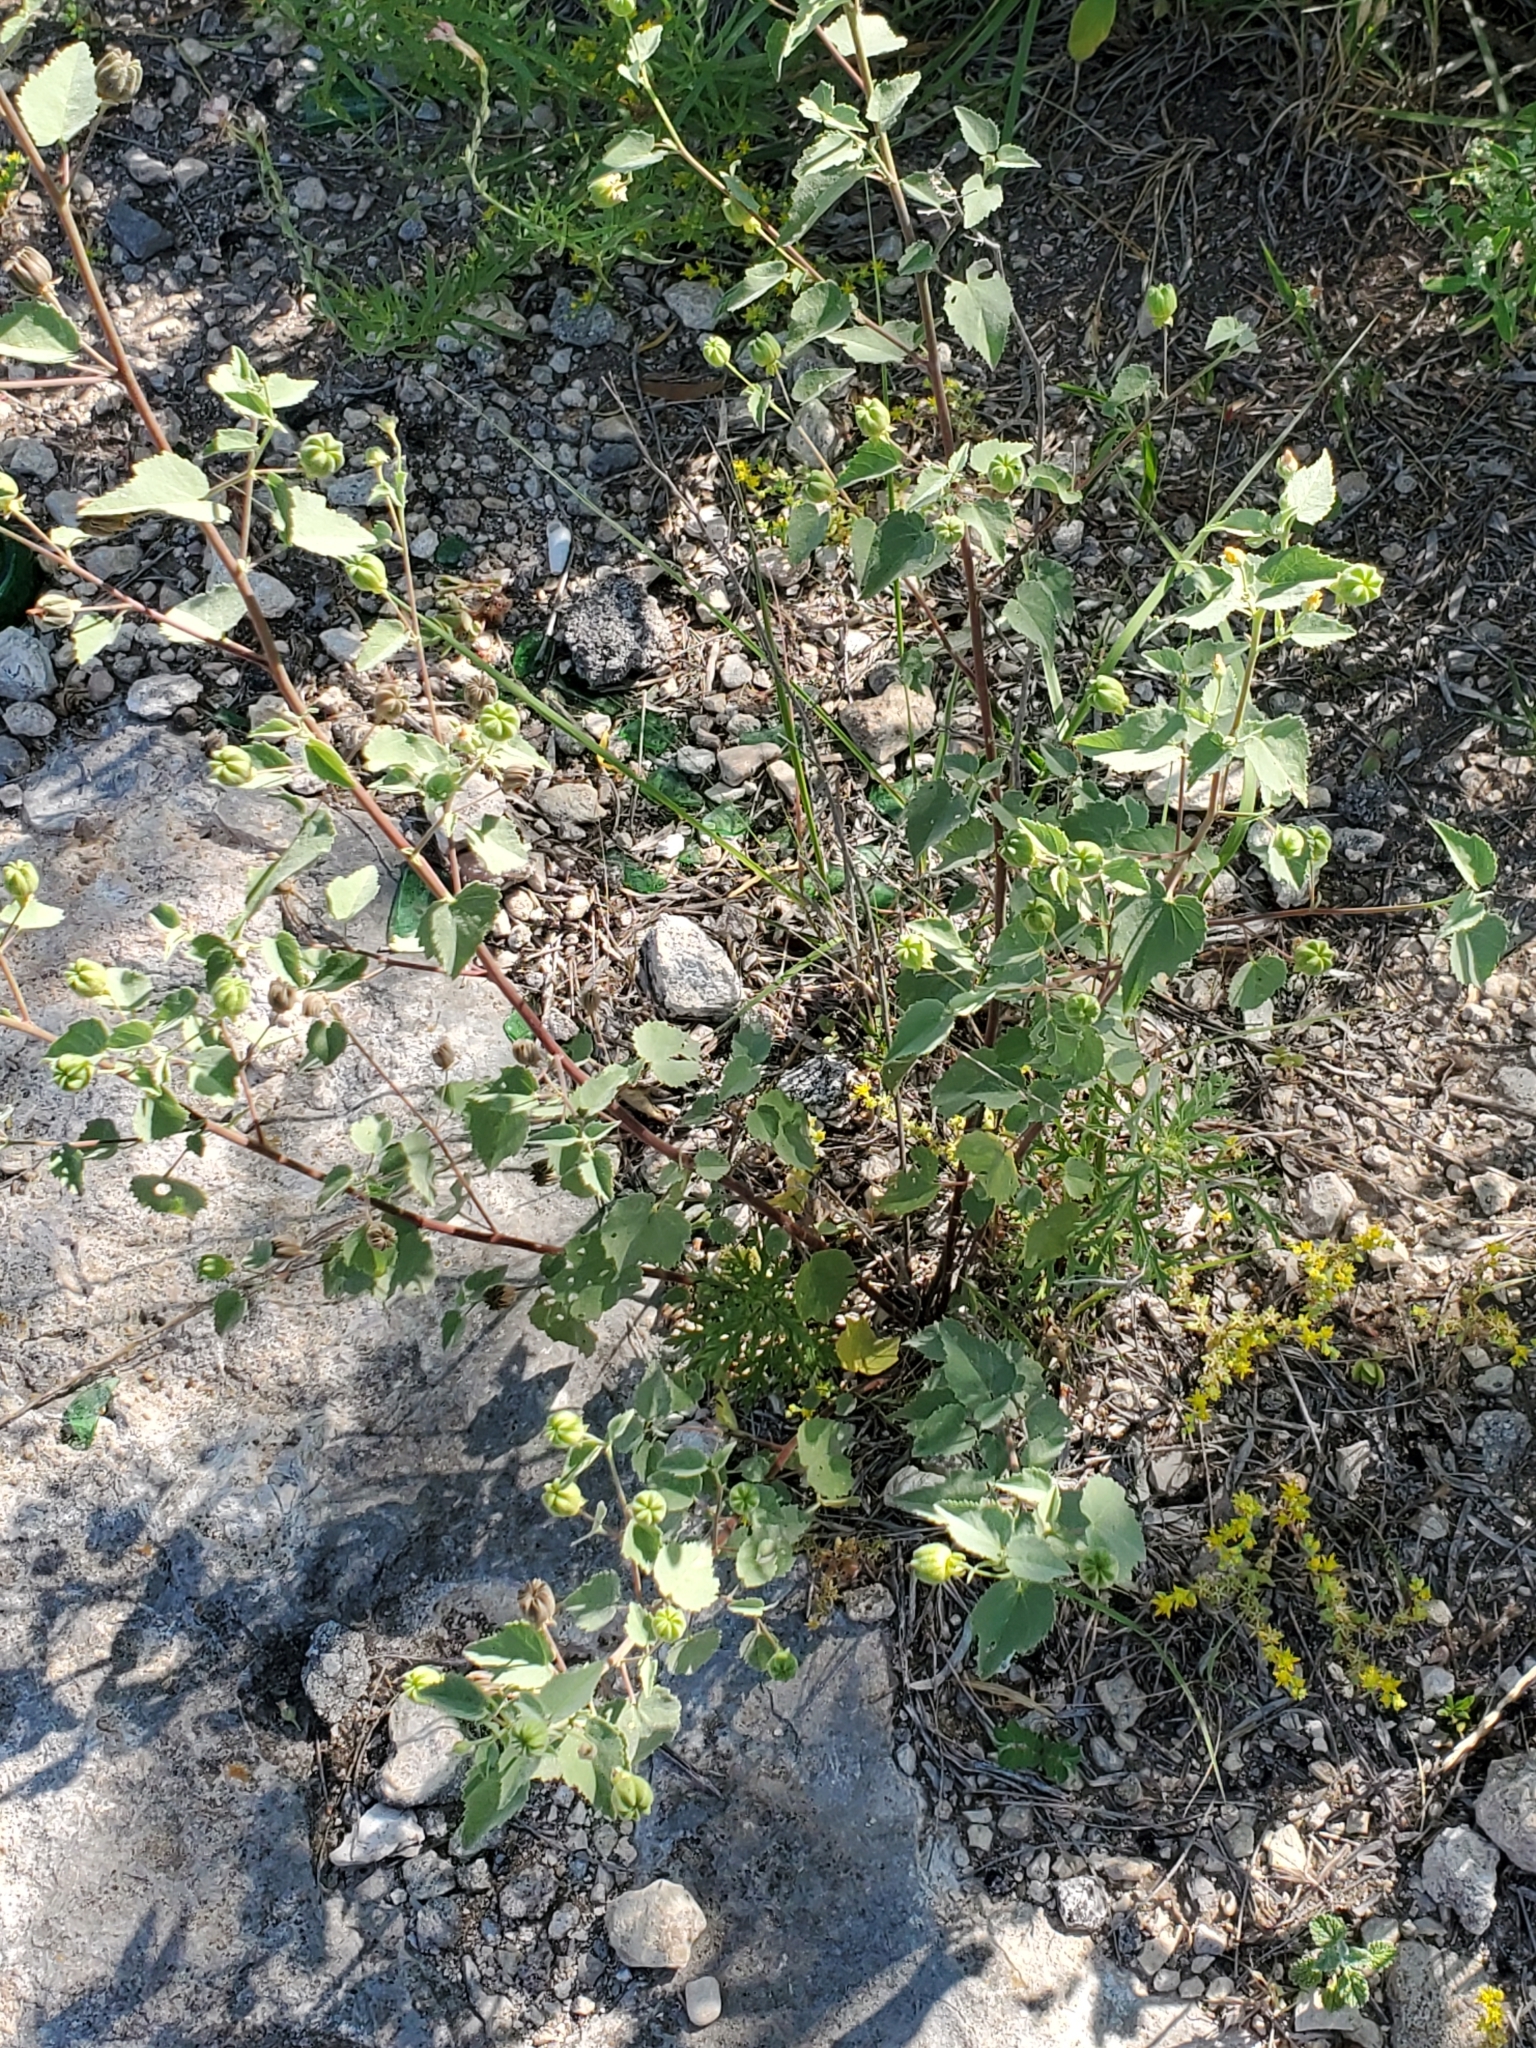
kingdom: Plantae
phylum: Tracheophyta
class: Magnoliopsida
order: Malvales
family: Malvaceae
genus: Abutilon
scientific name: Abutilon fruticosum
